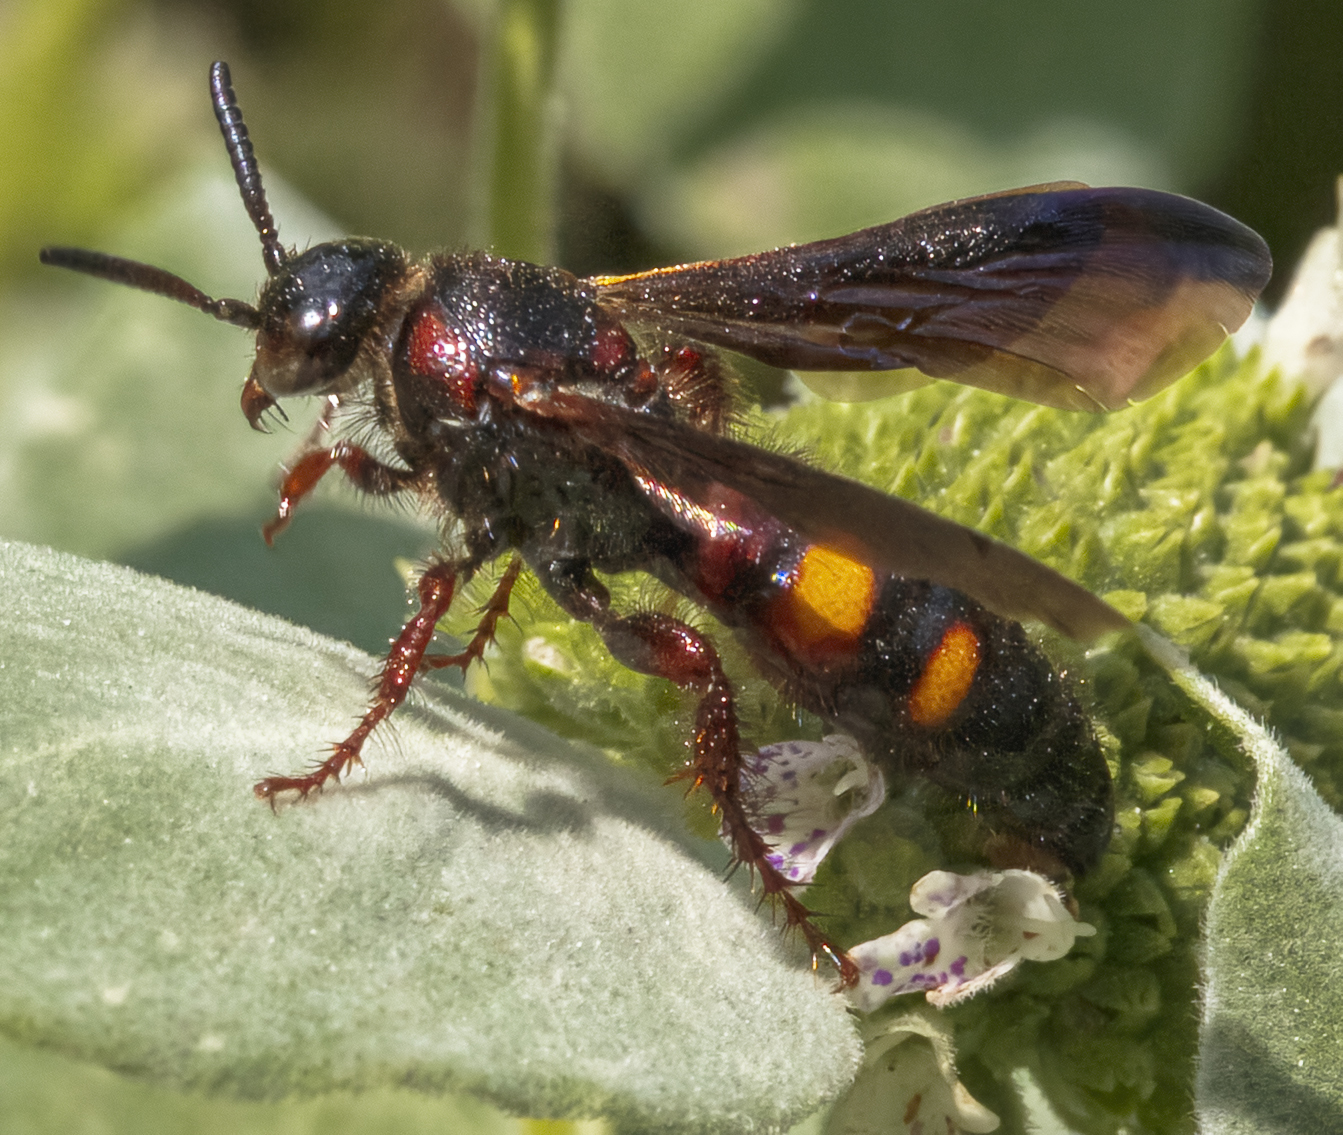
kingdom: Animalia
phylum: Arthropoda
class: Insecta
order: Hymenoptera
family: Scoliidae
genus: Scolia
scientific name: Scolia nobilitata
